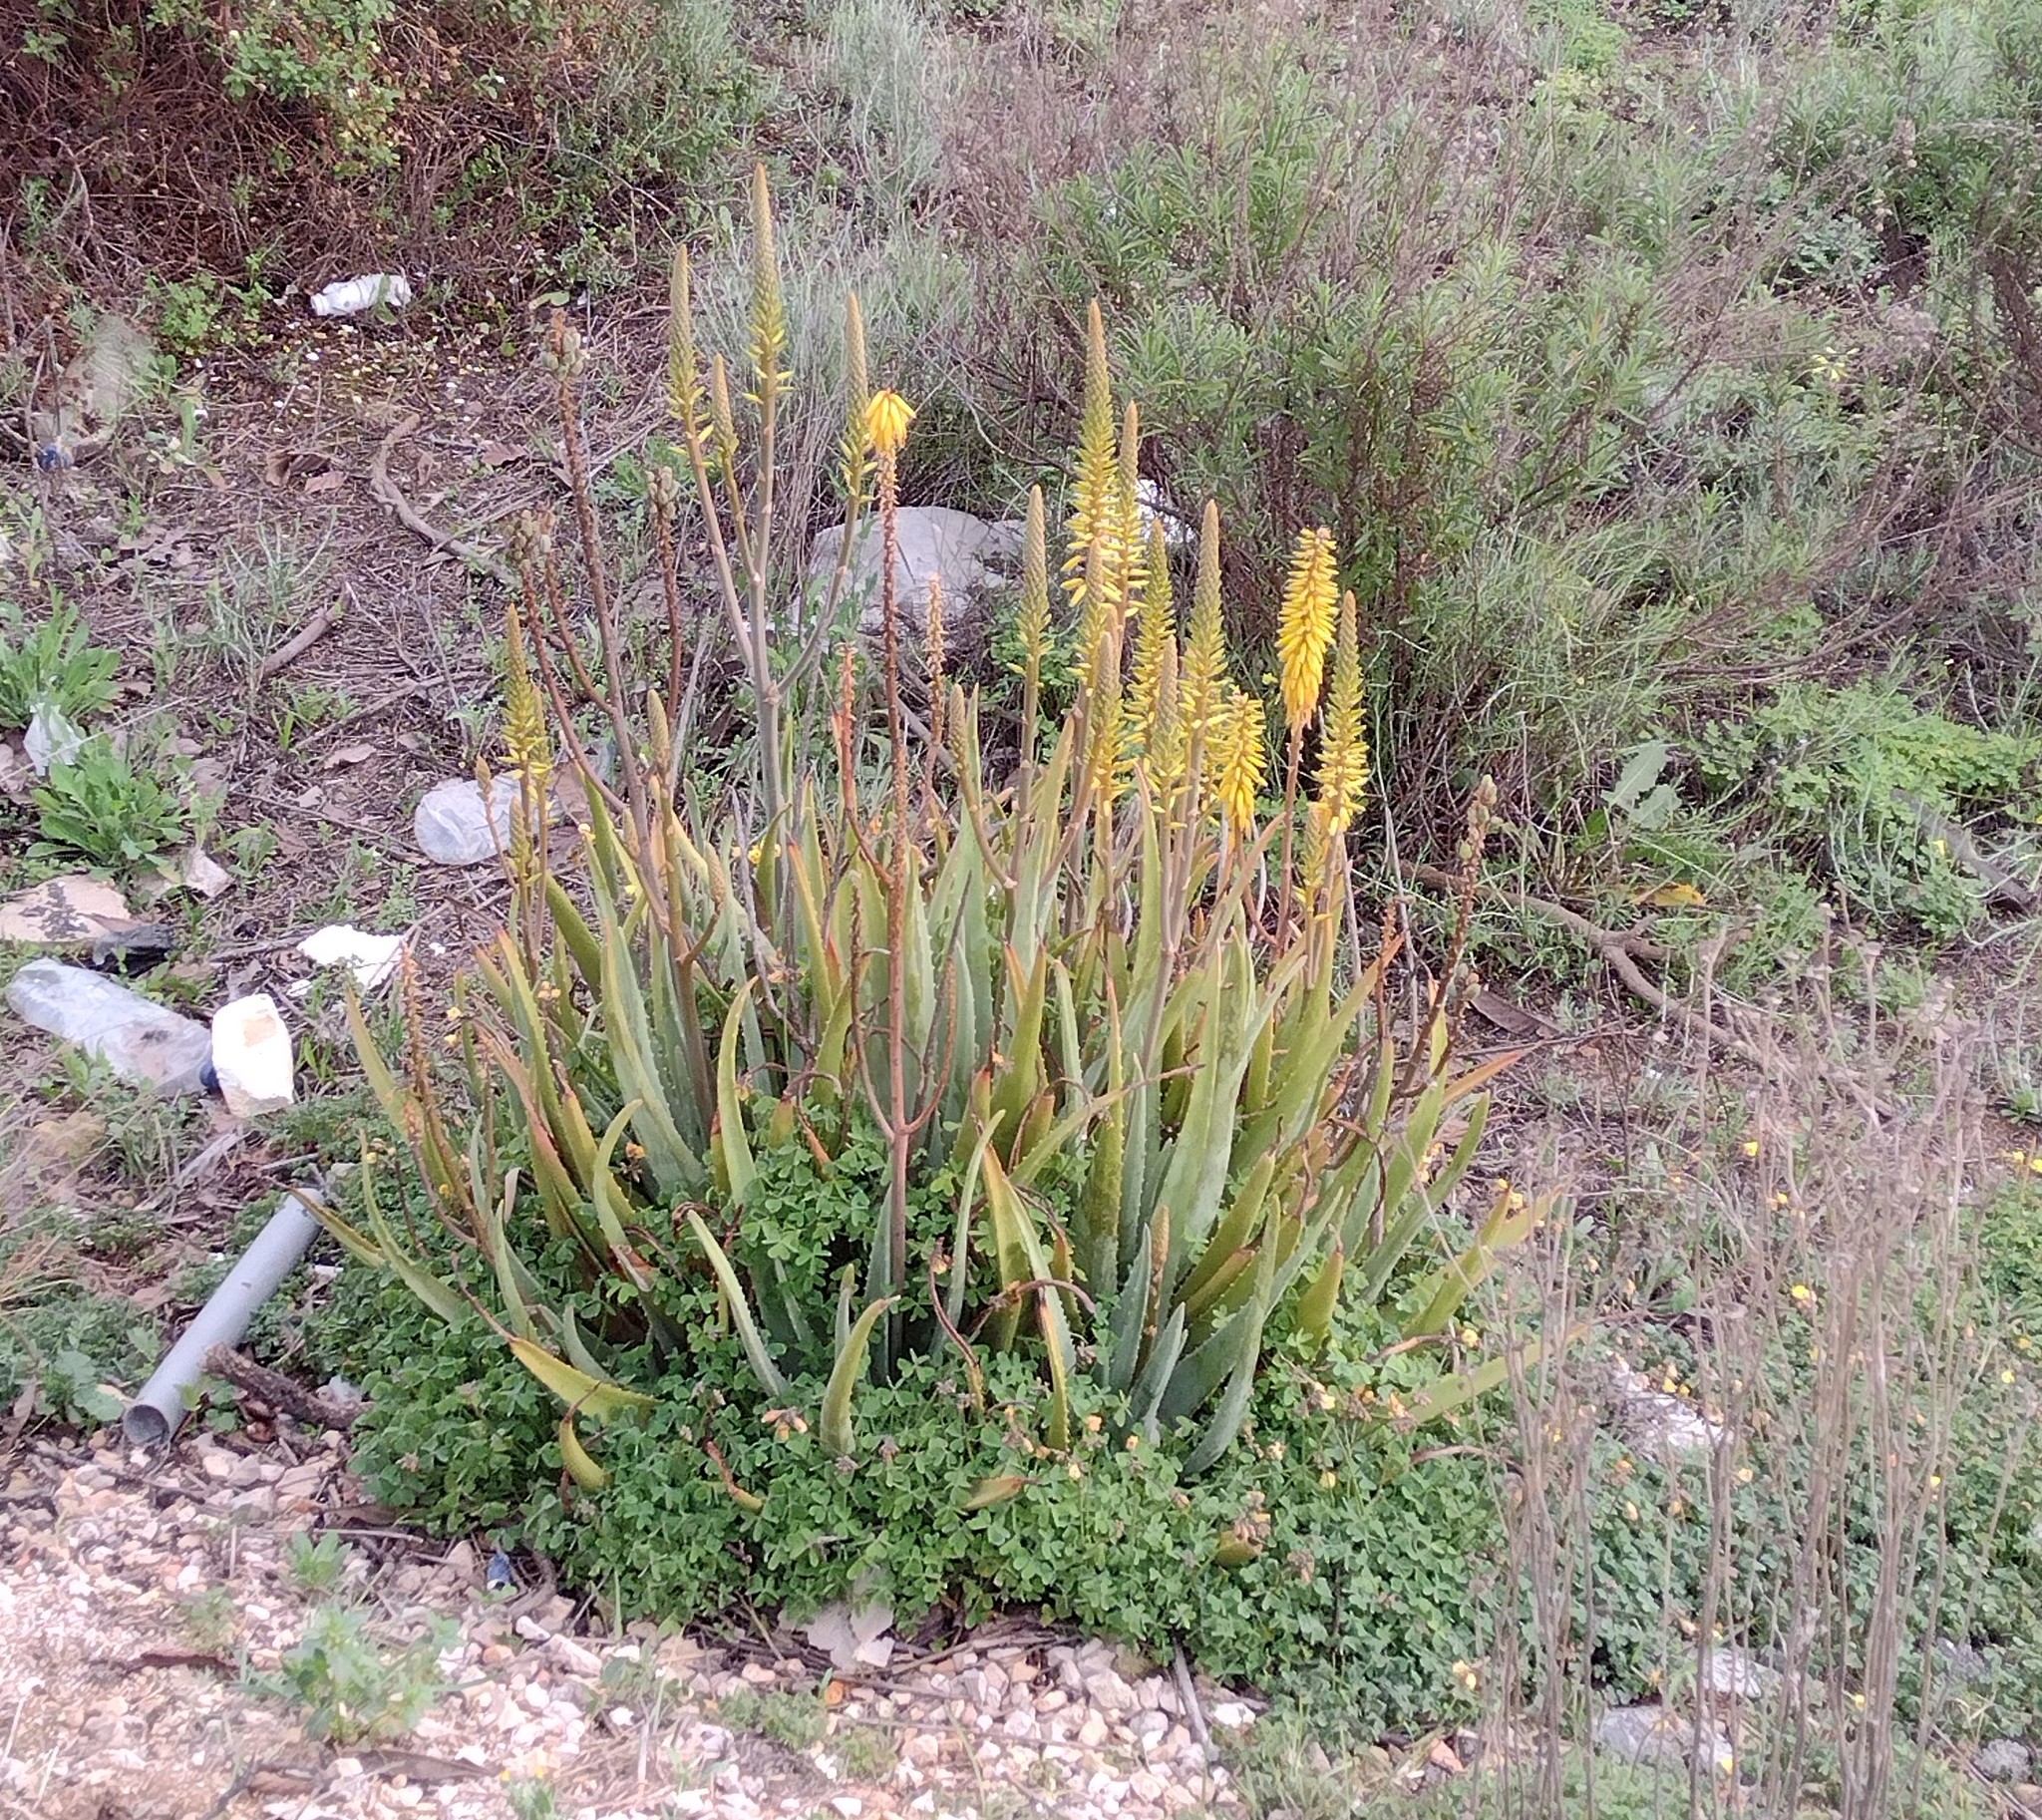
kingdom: Plantae
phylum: Tracheophyta
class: Liliopsida
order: Asparagales
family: Asphodelaceae
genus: Aloe
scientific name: Aloe vera
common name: Barbados aloe
